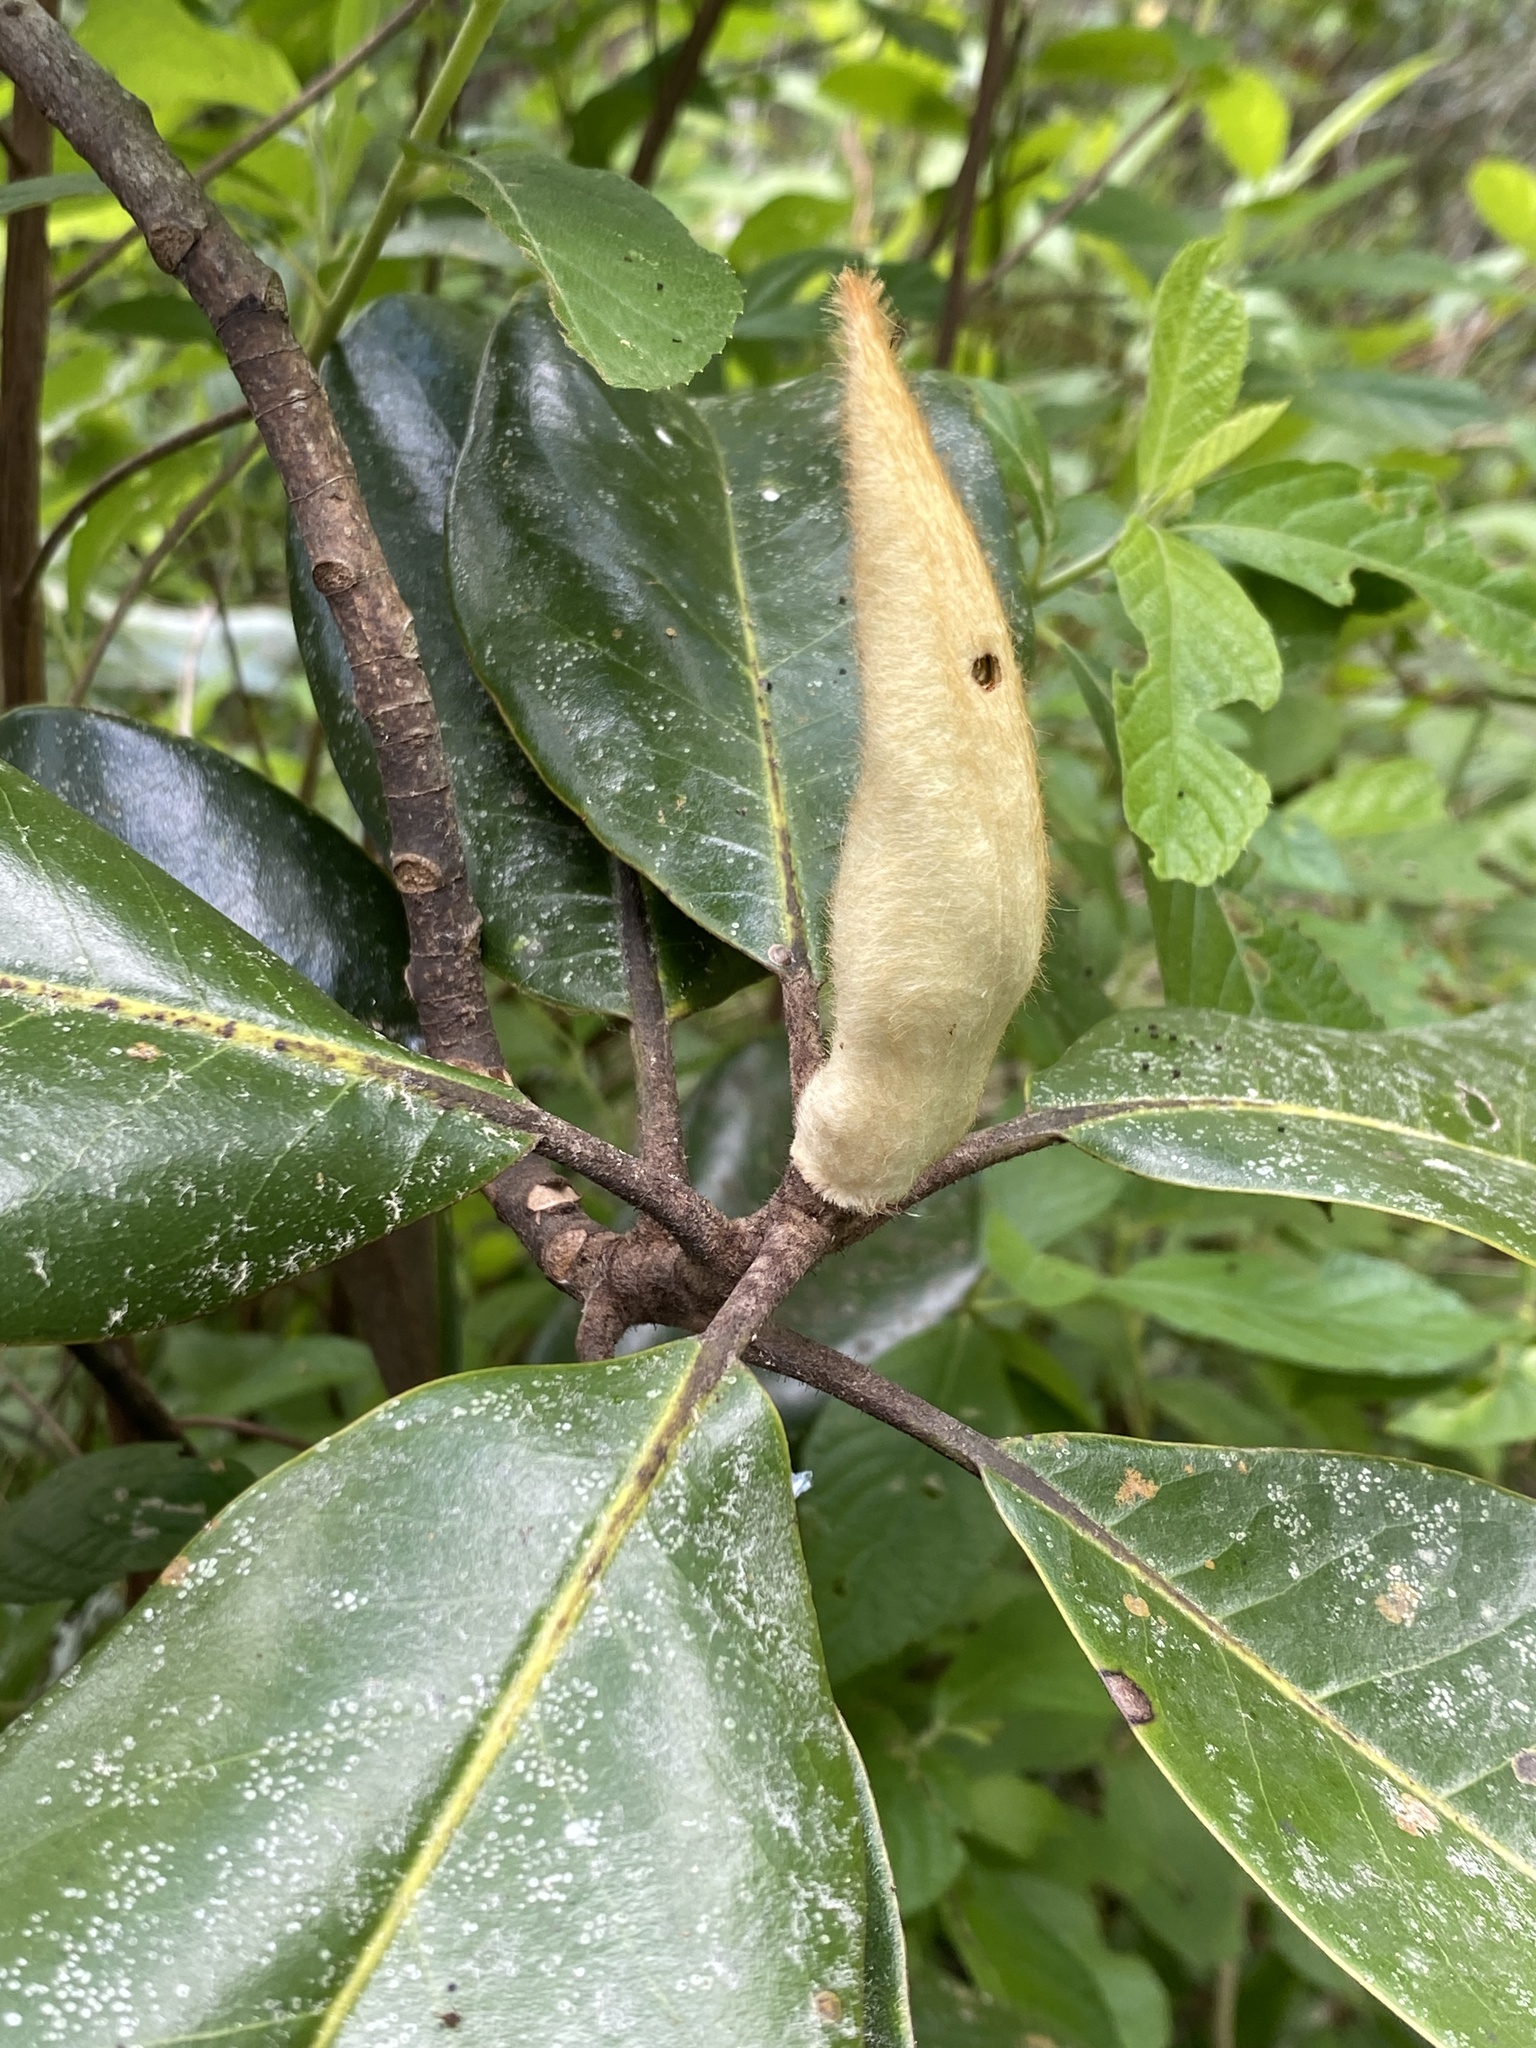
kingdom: Plantae
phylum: Tracheophyta
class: Magnoliopsida
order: Magnoliales
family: Magnoliaceae
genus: Magnolia
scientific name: Magnolia grandiflora
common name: Southern magnolia
